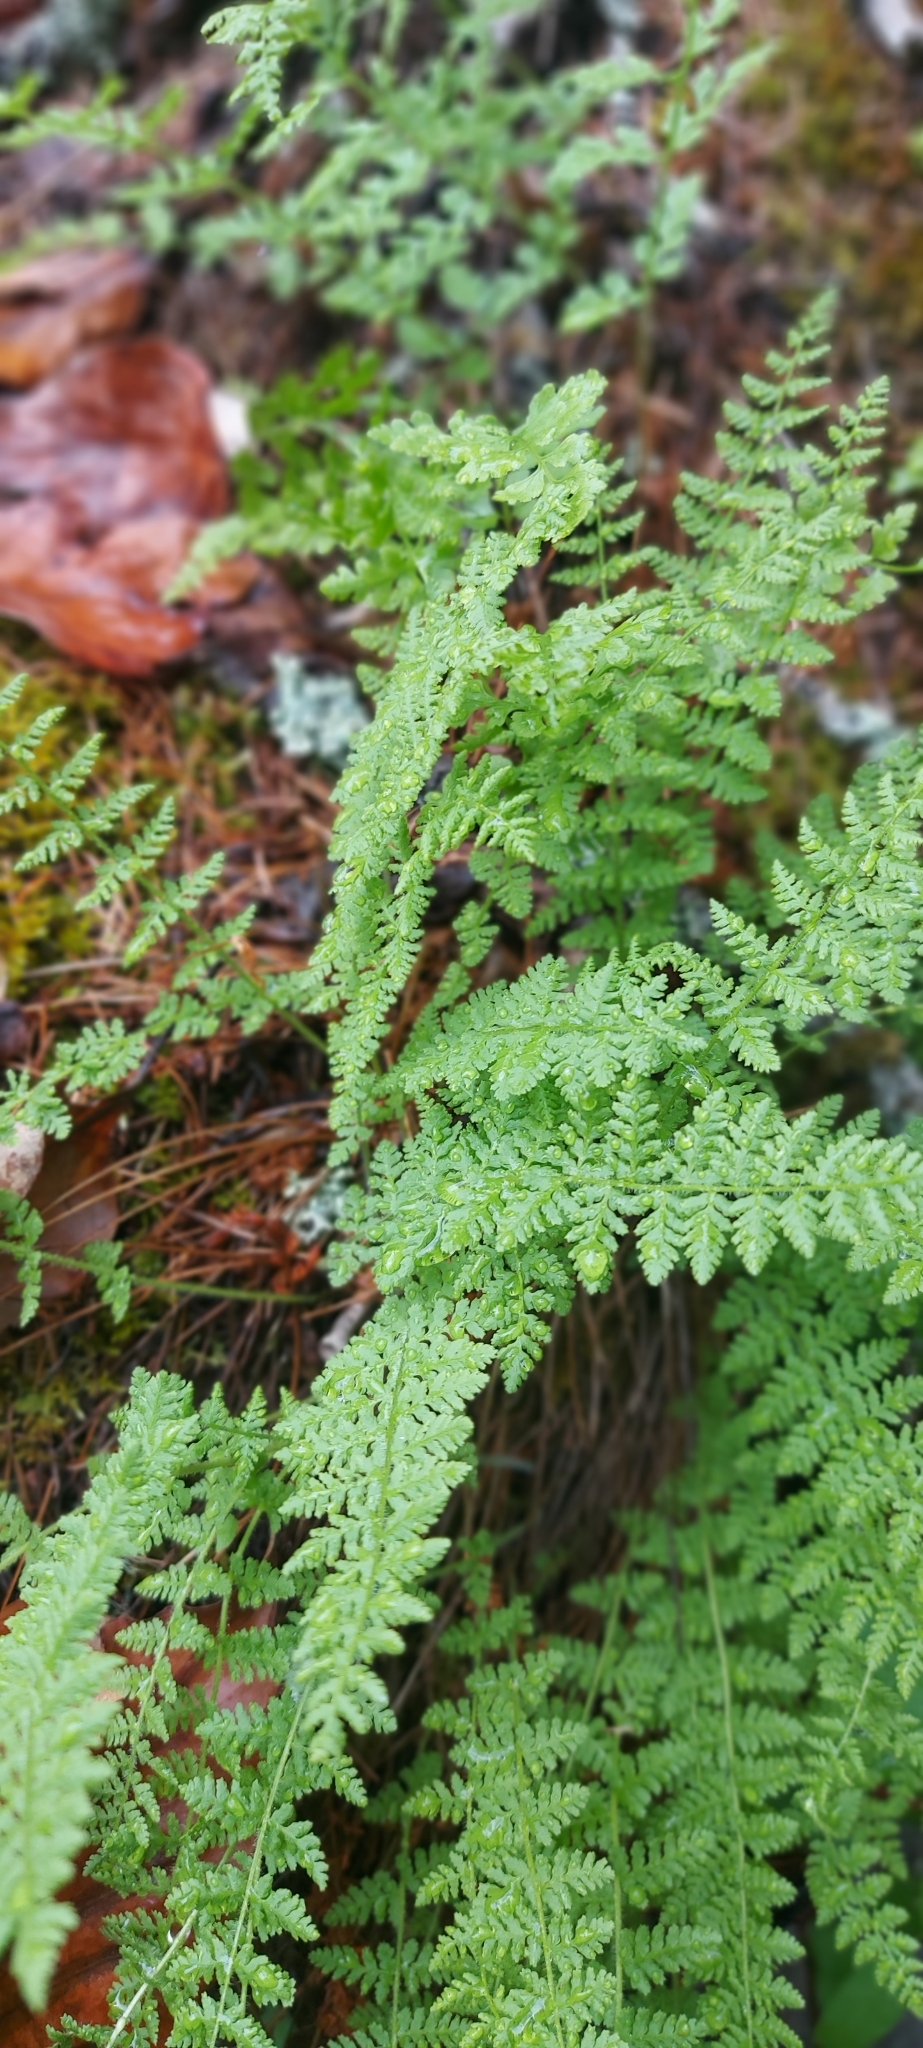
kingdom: Plantae
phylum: Tracheophyta
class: Polypodiopsida
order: Polypodiales
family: Woodsiaceae
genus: Physematium
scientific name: Physematium scopulinum
